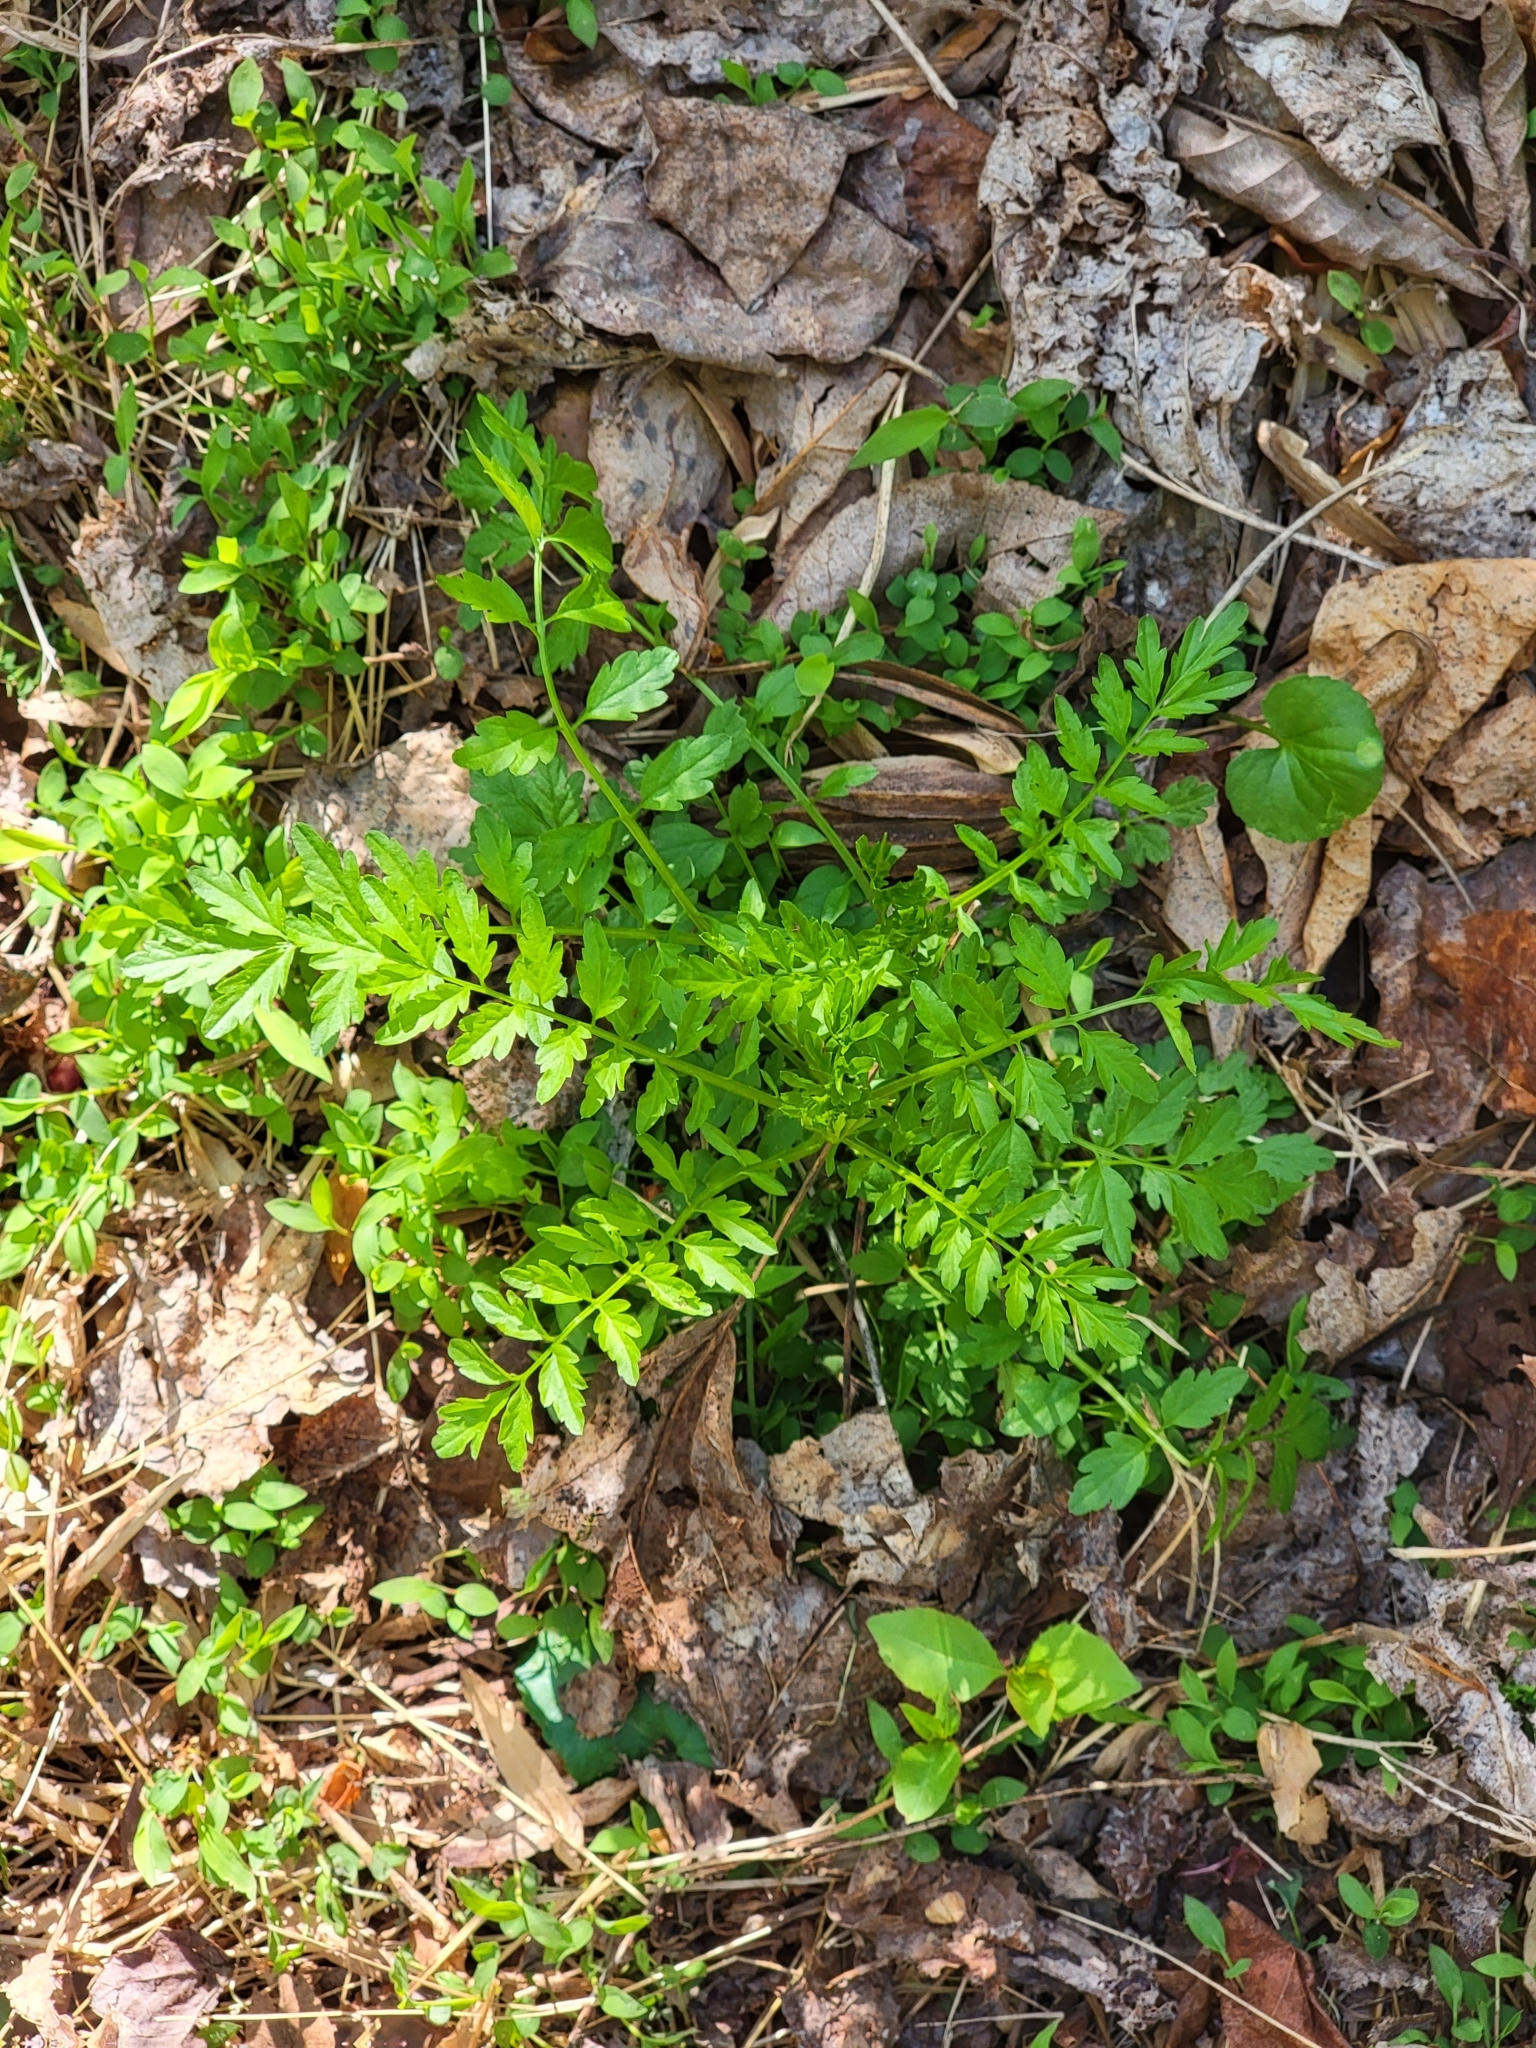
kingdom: Plantae
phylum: Tracheophyta
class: Magnoliopsida
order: Brassicales
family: Brassicaceae
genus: Cardamine
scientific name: Cardamine impatiens
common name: Narrow-leaved bitter-cress
